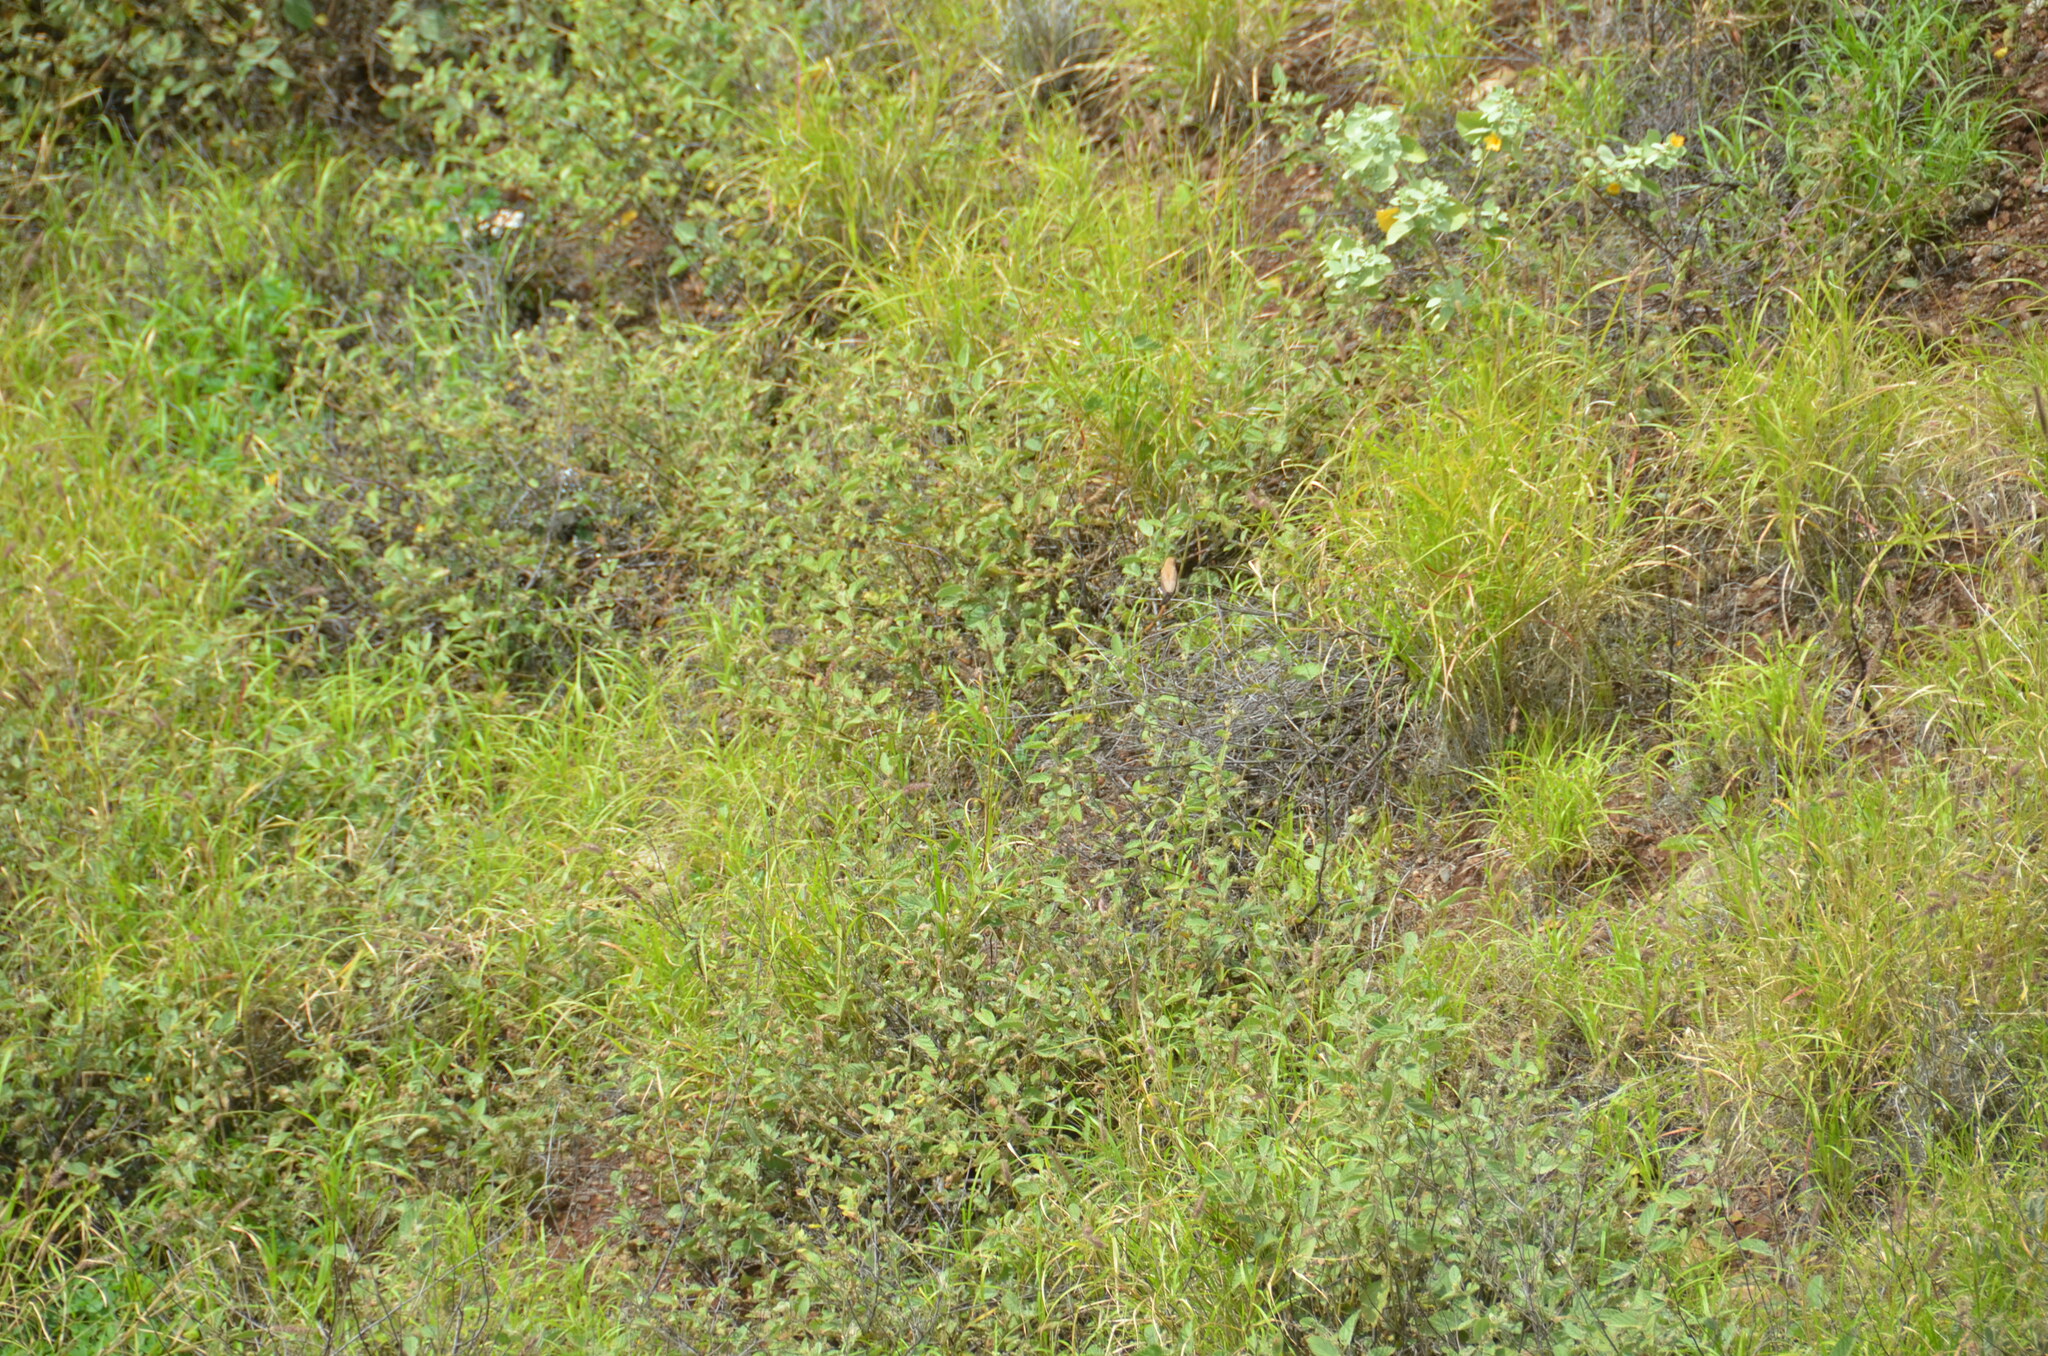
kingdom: Animalia
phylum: Chordata
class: Aves
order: Passeriformes
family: Estrildidae
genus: Euodice
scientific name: Euodice cantans
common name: African silverbill
